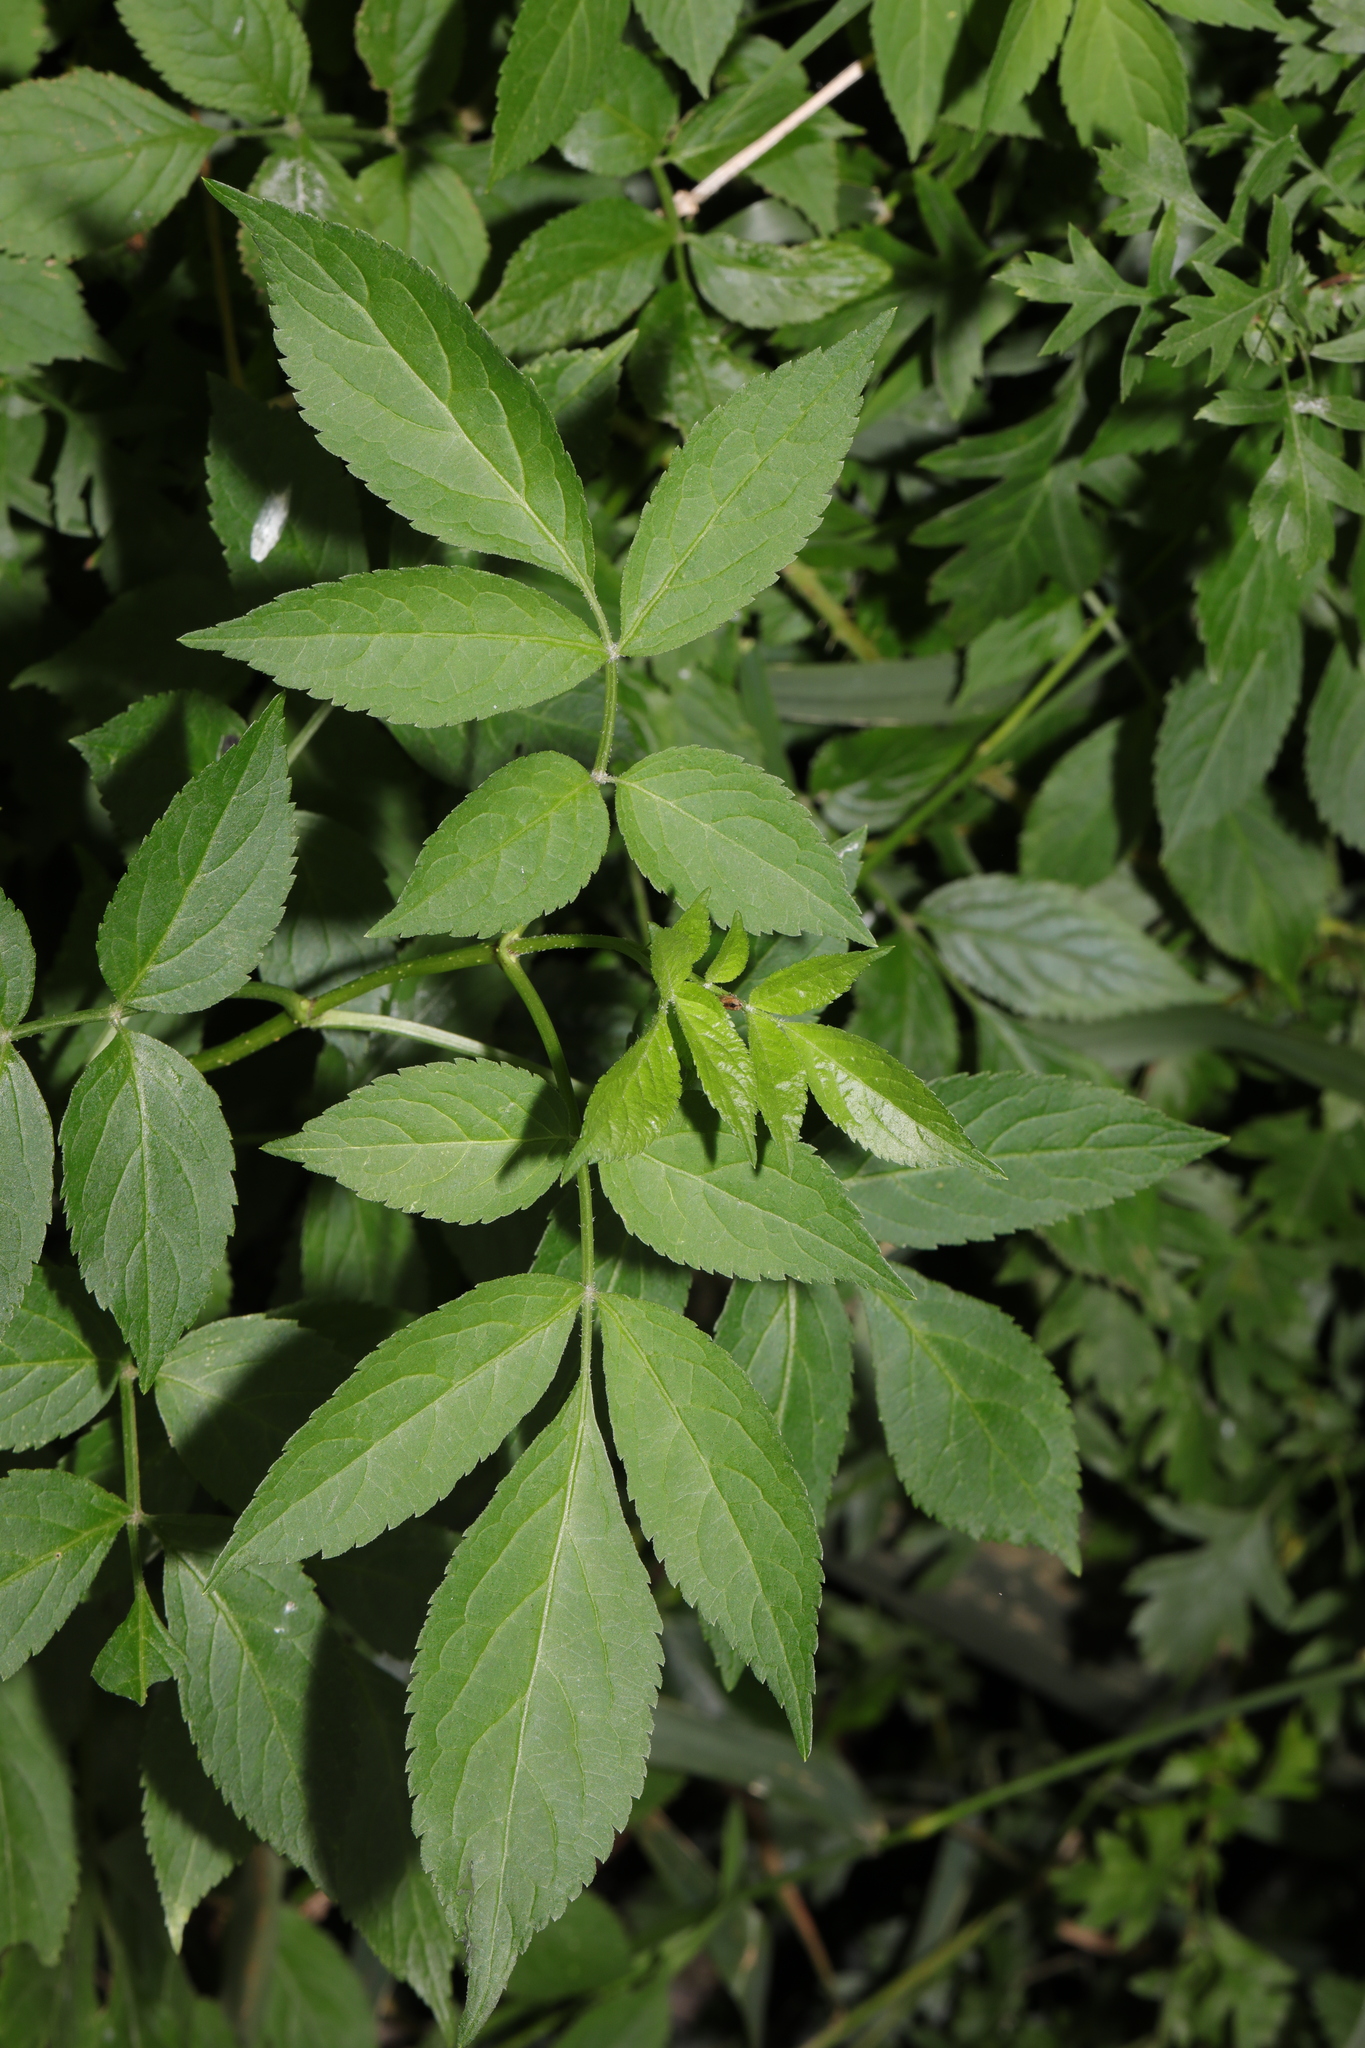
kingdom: Plantae
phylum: Tracheophyta
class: Magnoliopsida
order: Dipsacales
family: Viburnaceae
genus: Sambucus
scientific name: Sambucus nigra
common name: Elder
